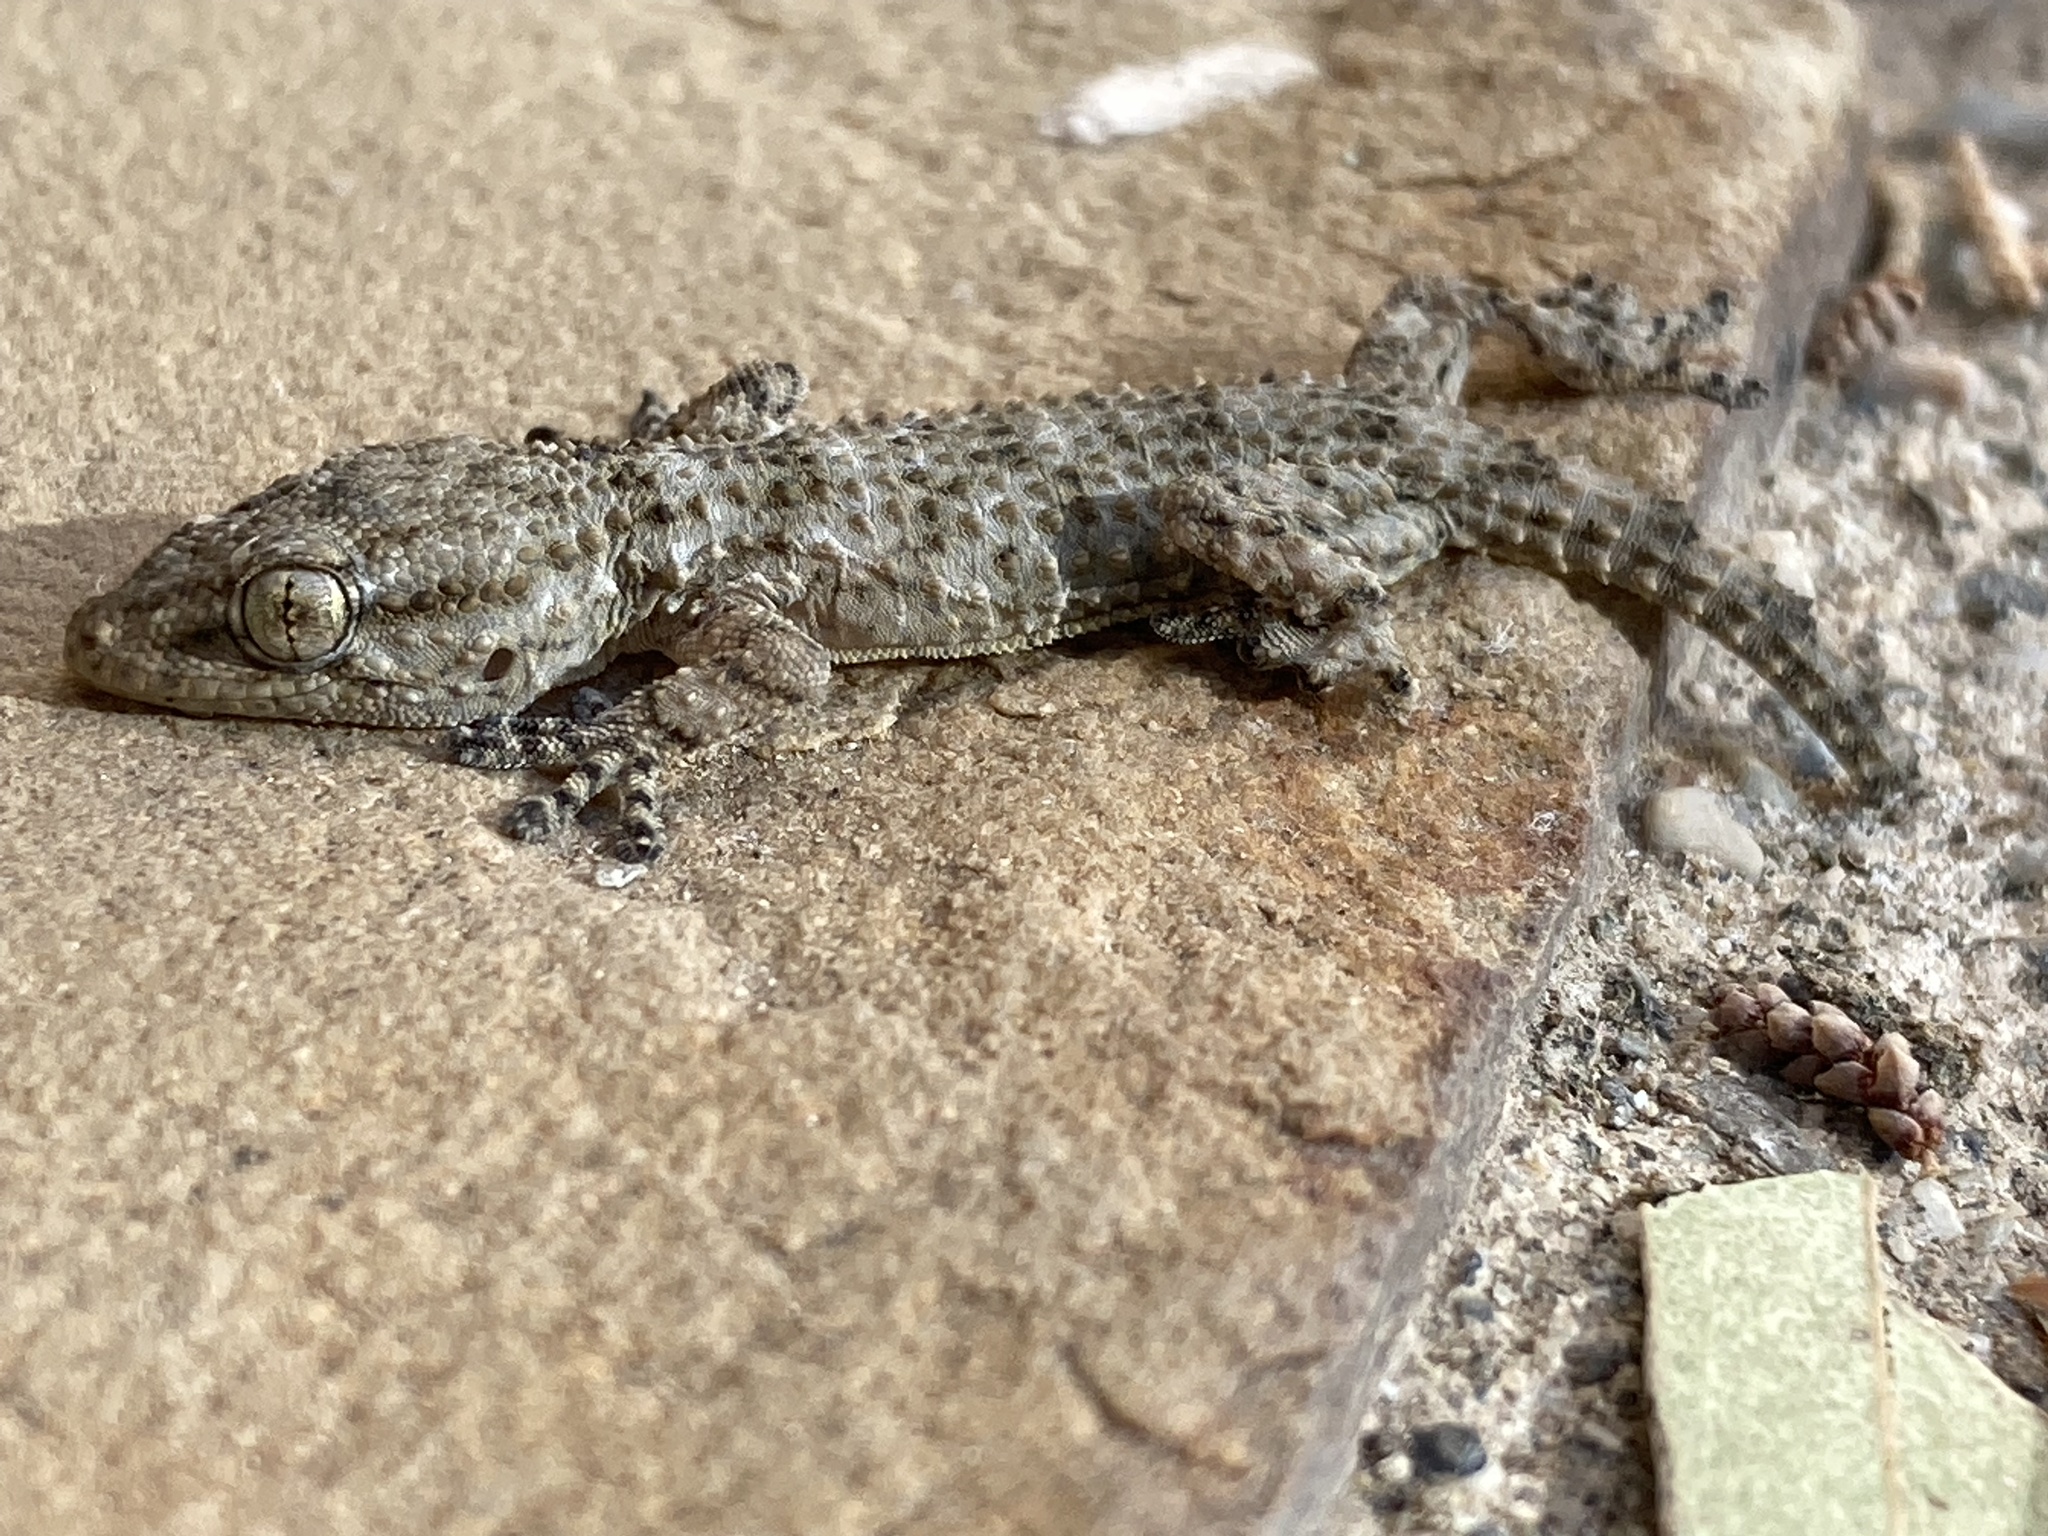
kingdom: Animalia
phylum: Chordata
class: Squamata
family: Phyllodactylidae
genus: Tarentola
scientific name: Tarentola mauritanica
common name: Moorish gecko
